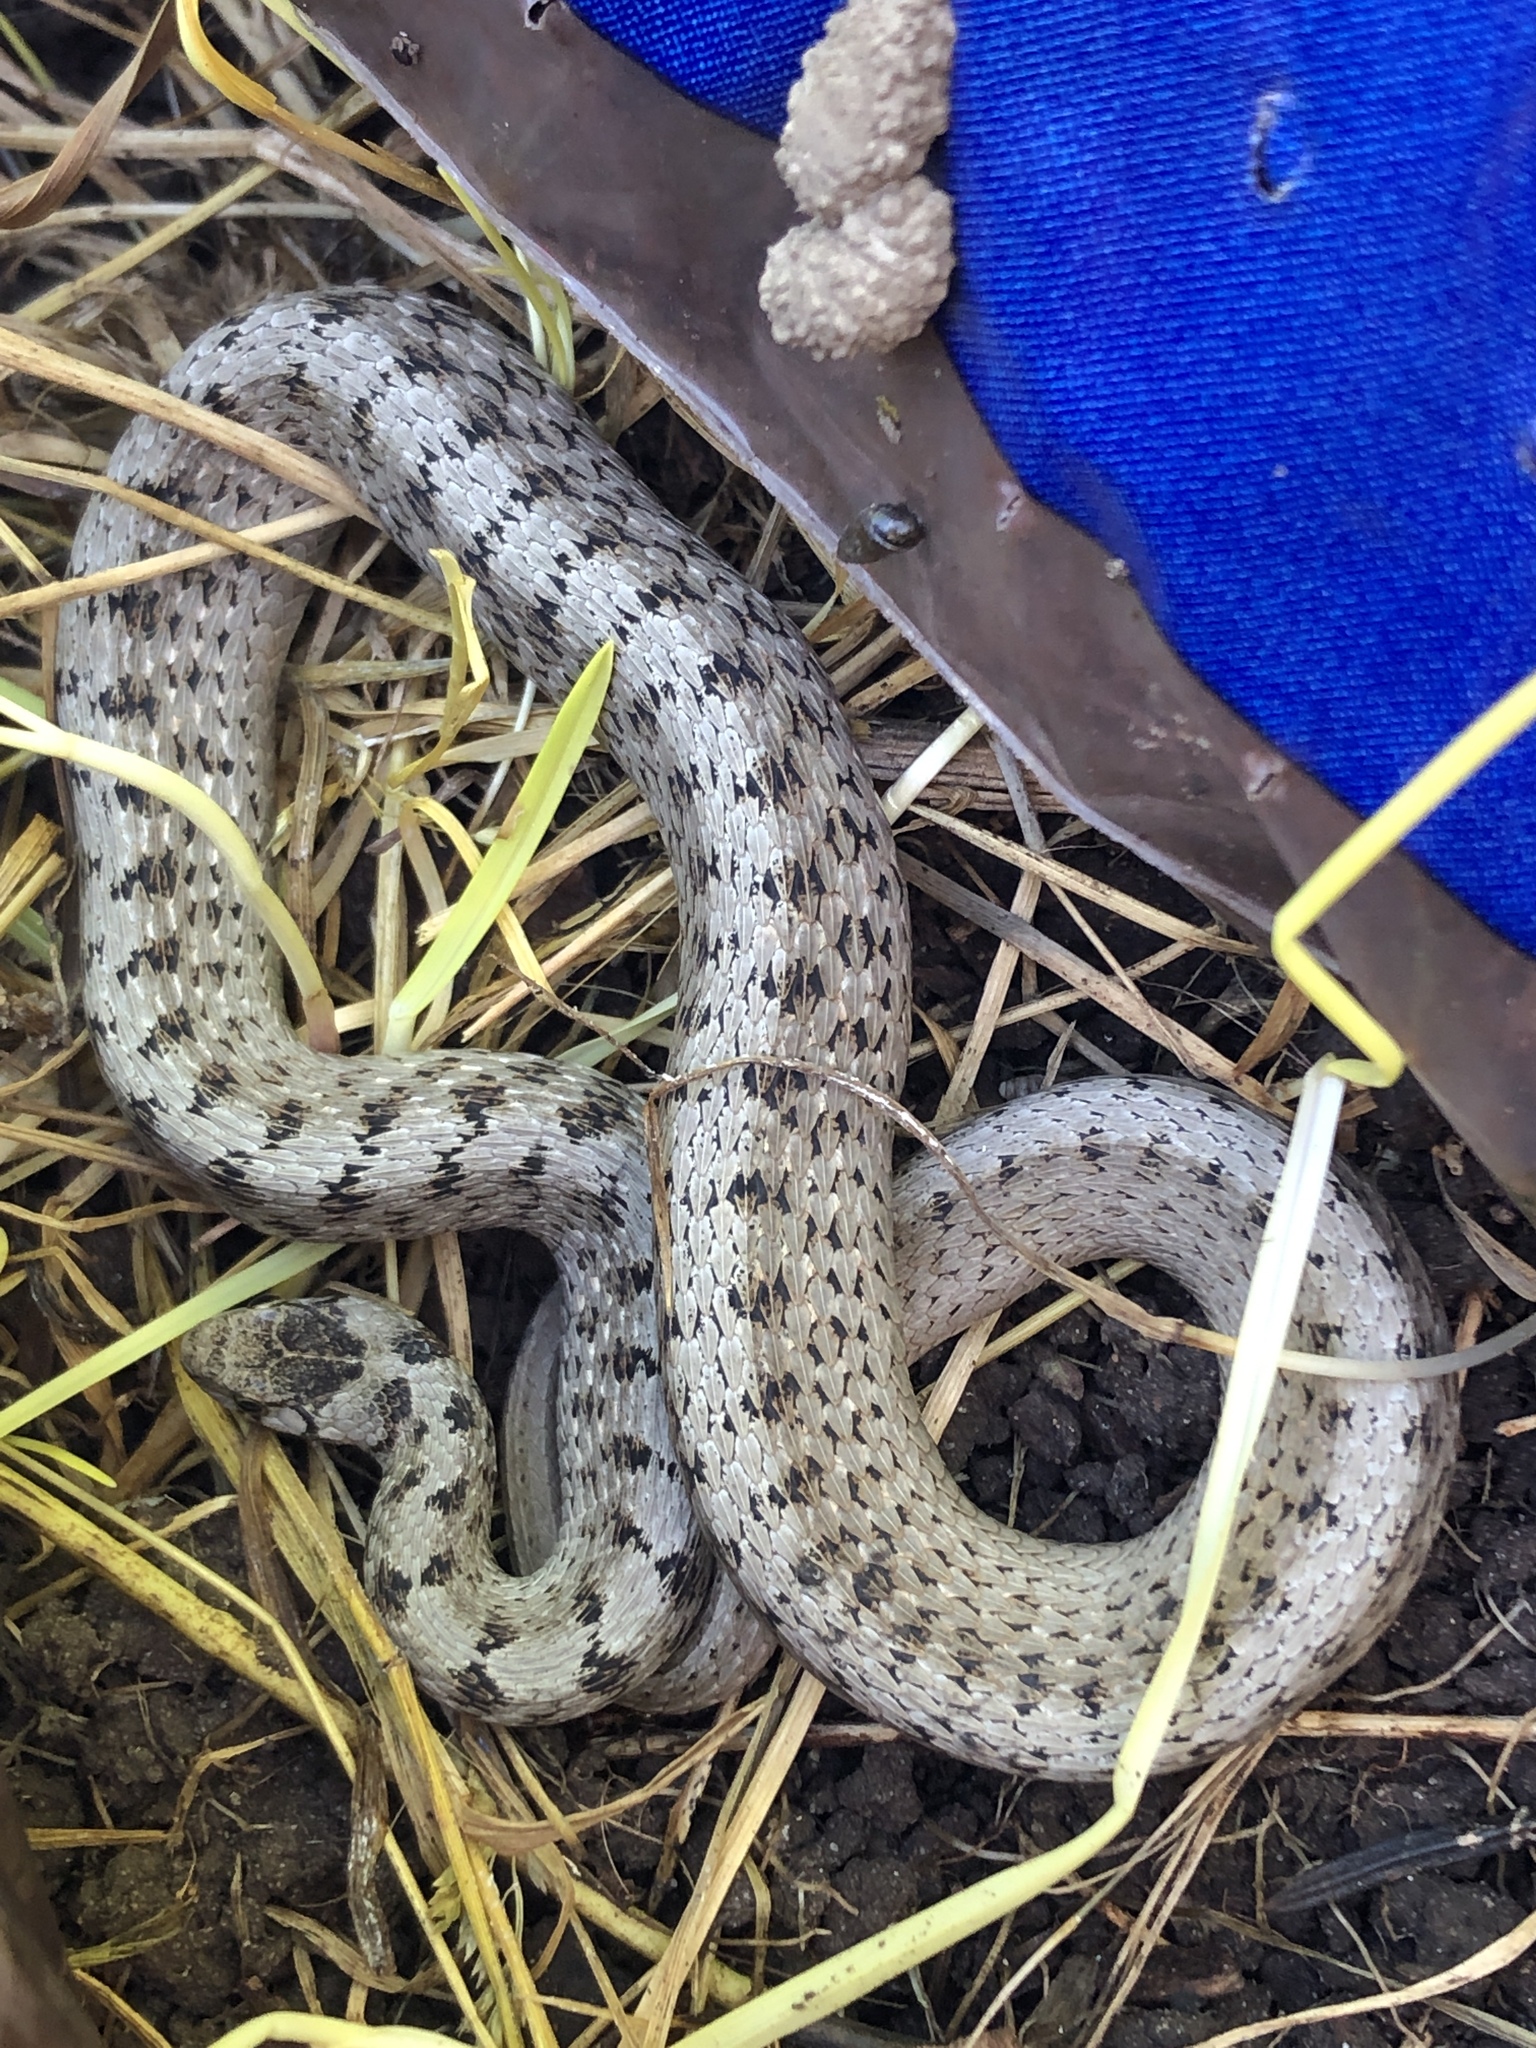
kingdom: Animalia
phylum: Chordata
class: Squamata
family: Colubridae
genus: Storeria
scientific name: Storeria dekayi
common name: (dekay’s) brown snake
